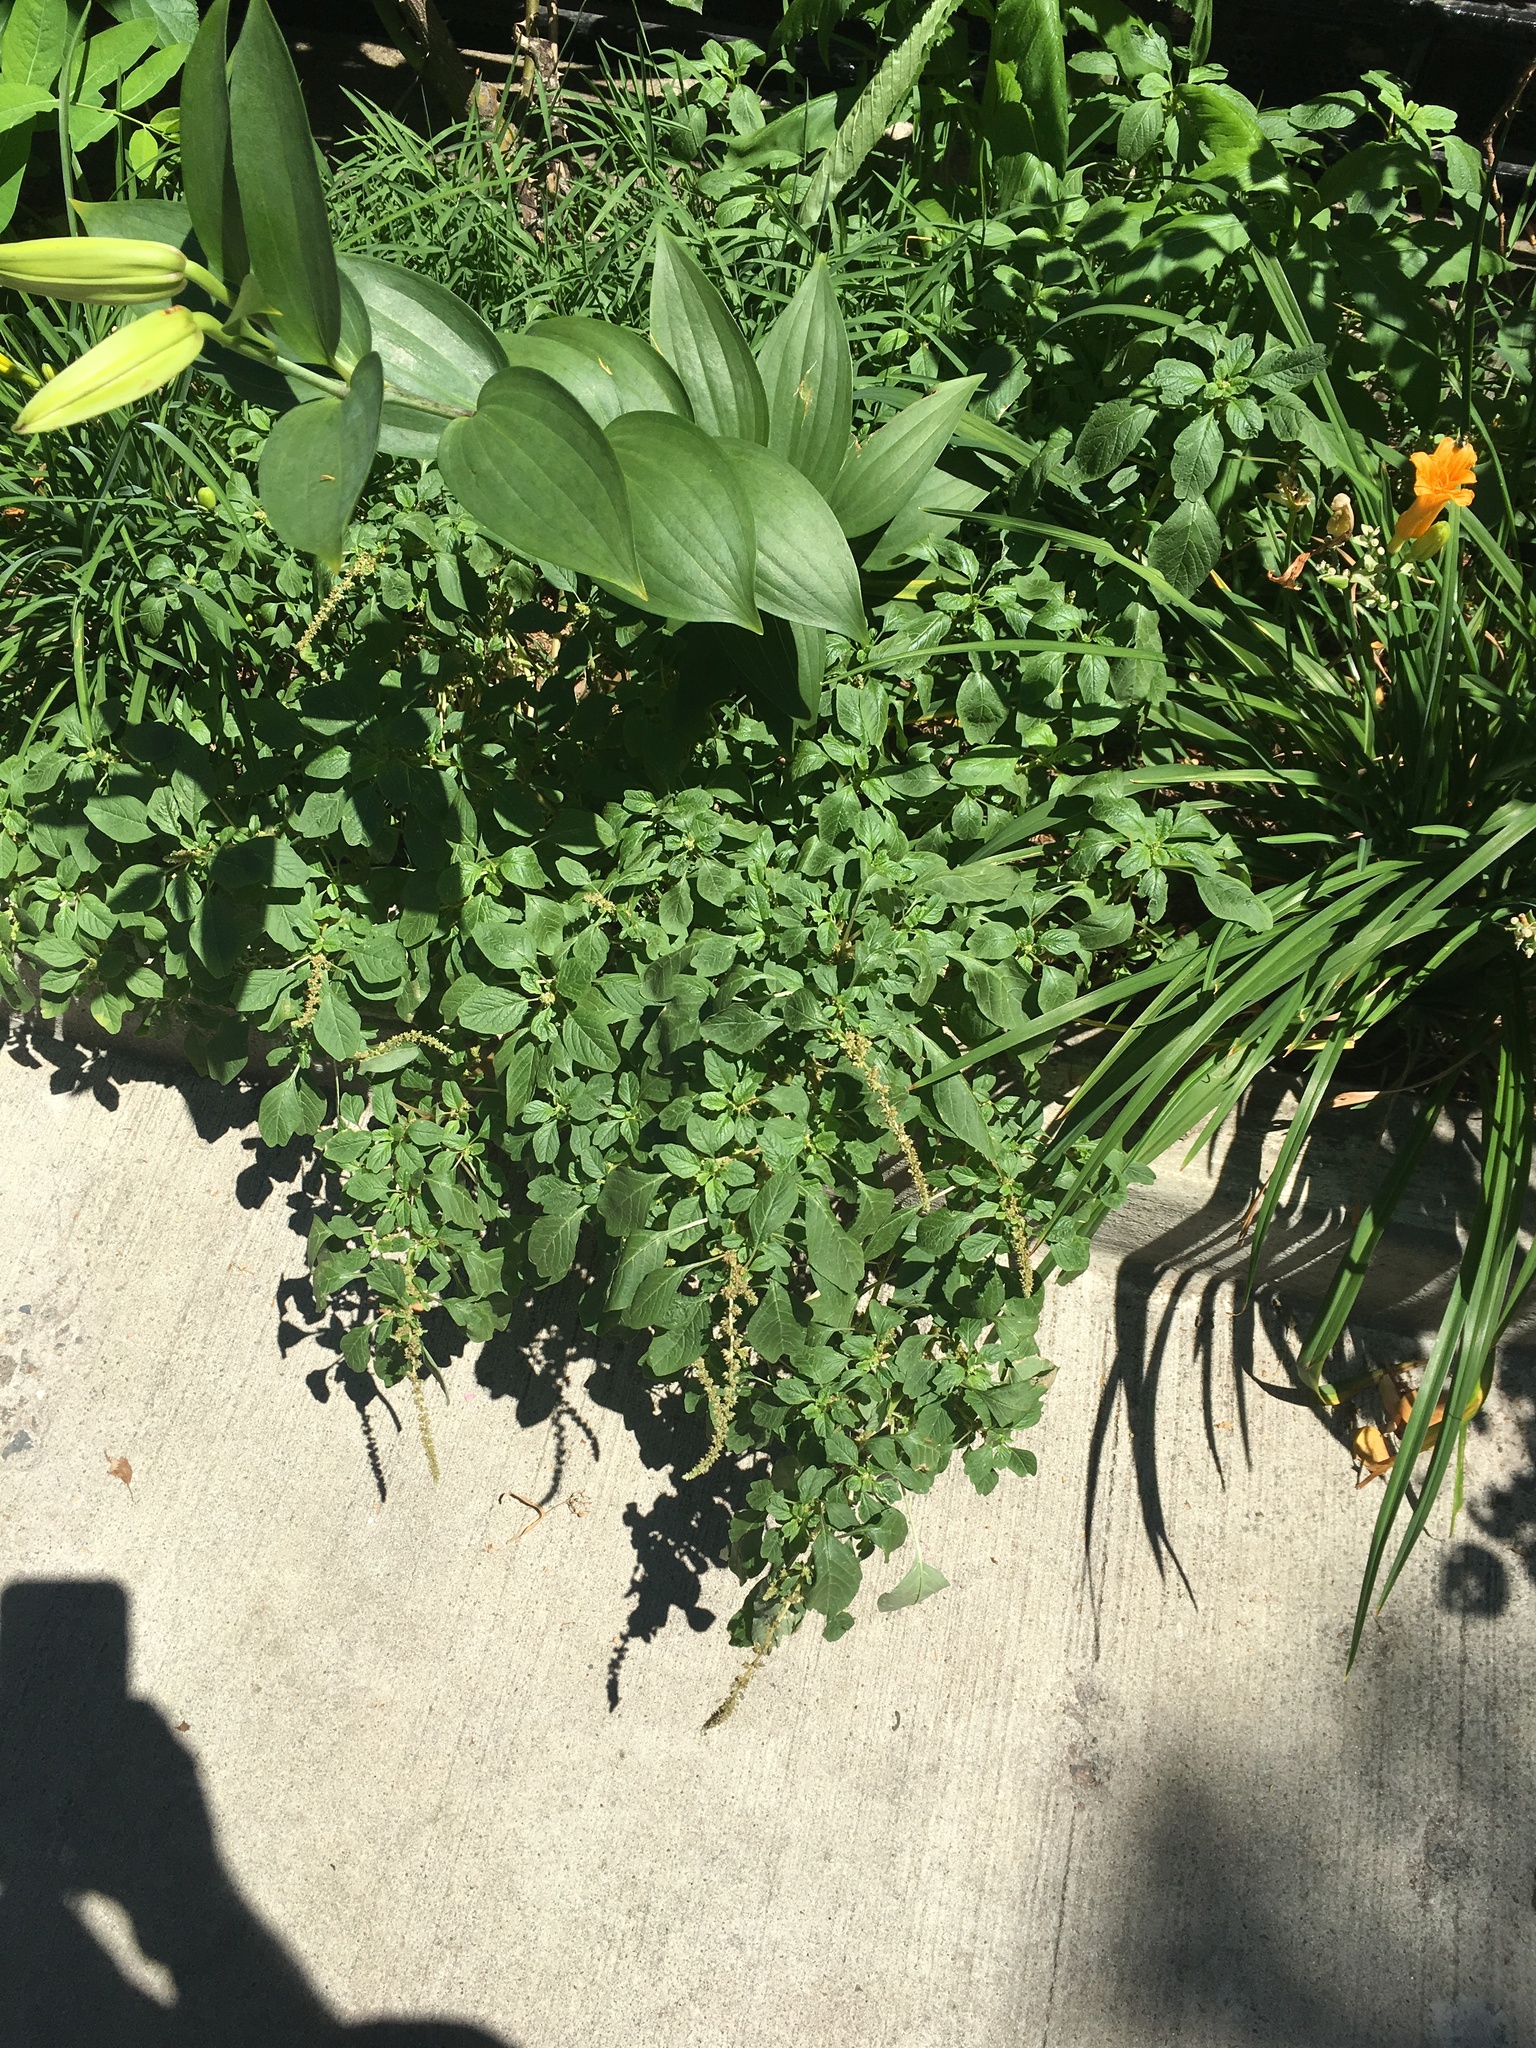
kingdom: Plantae
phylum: Tracheophyta
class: Magnoliopsida
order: Caryophyllales
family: Amaranthaceae
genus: Amaranthus
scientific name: Amaranthus blitum
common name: Purple amaranth
